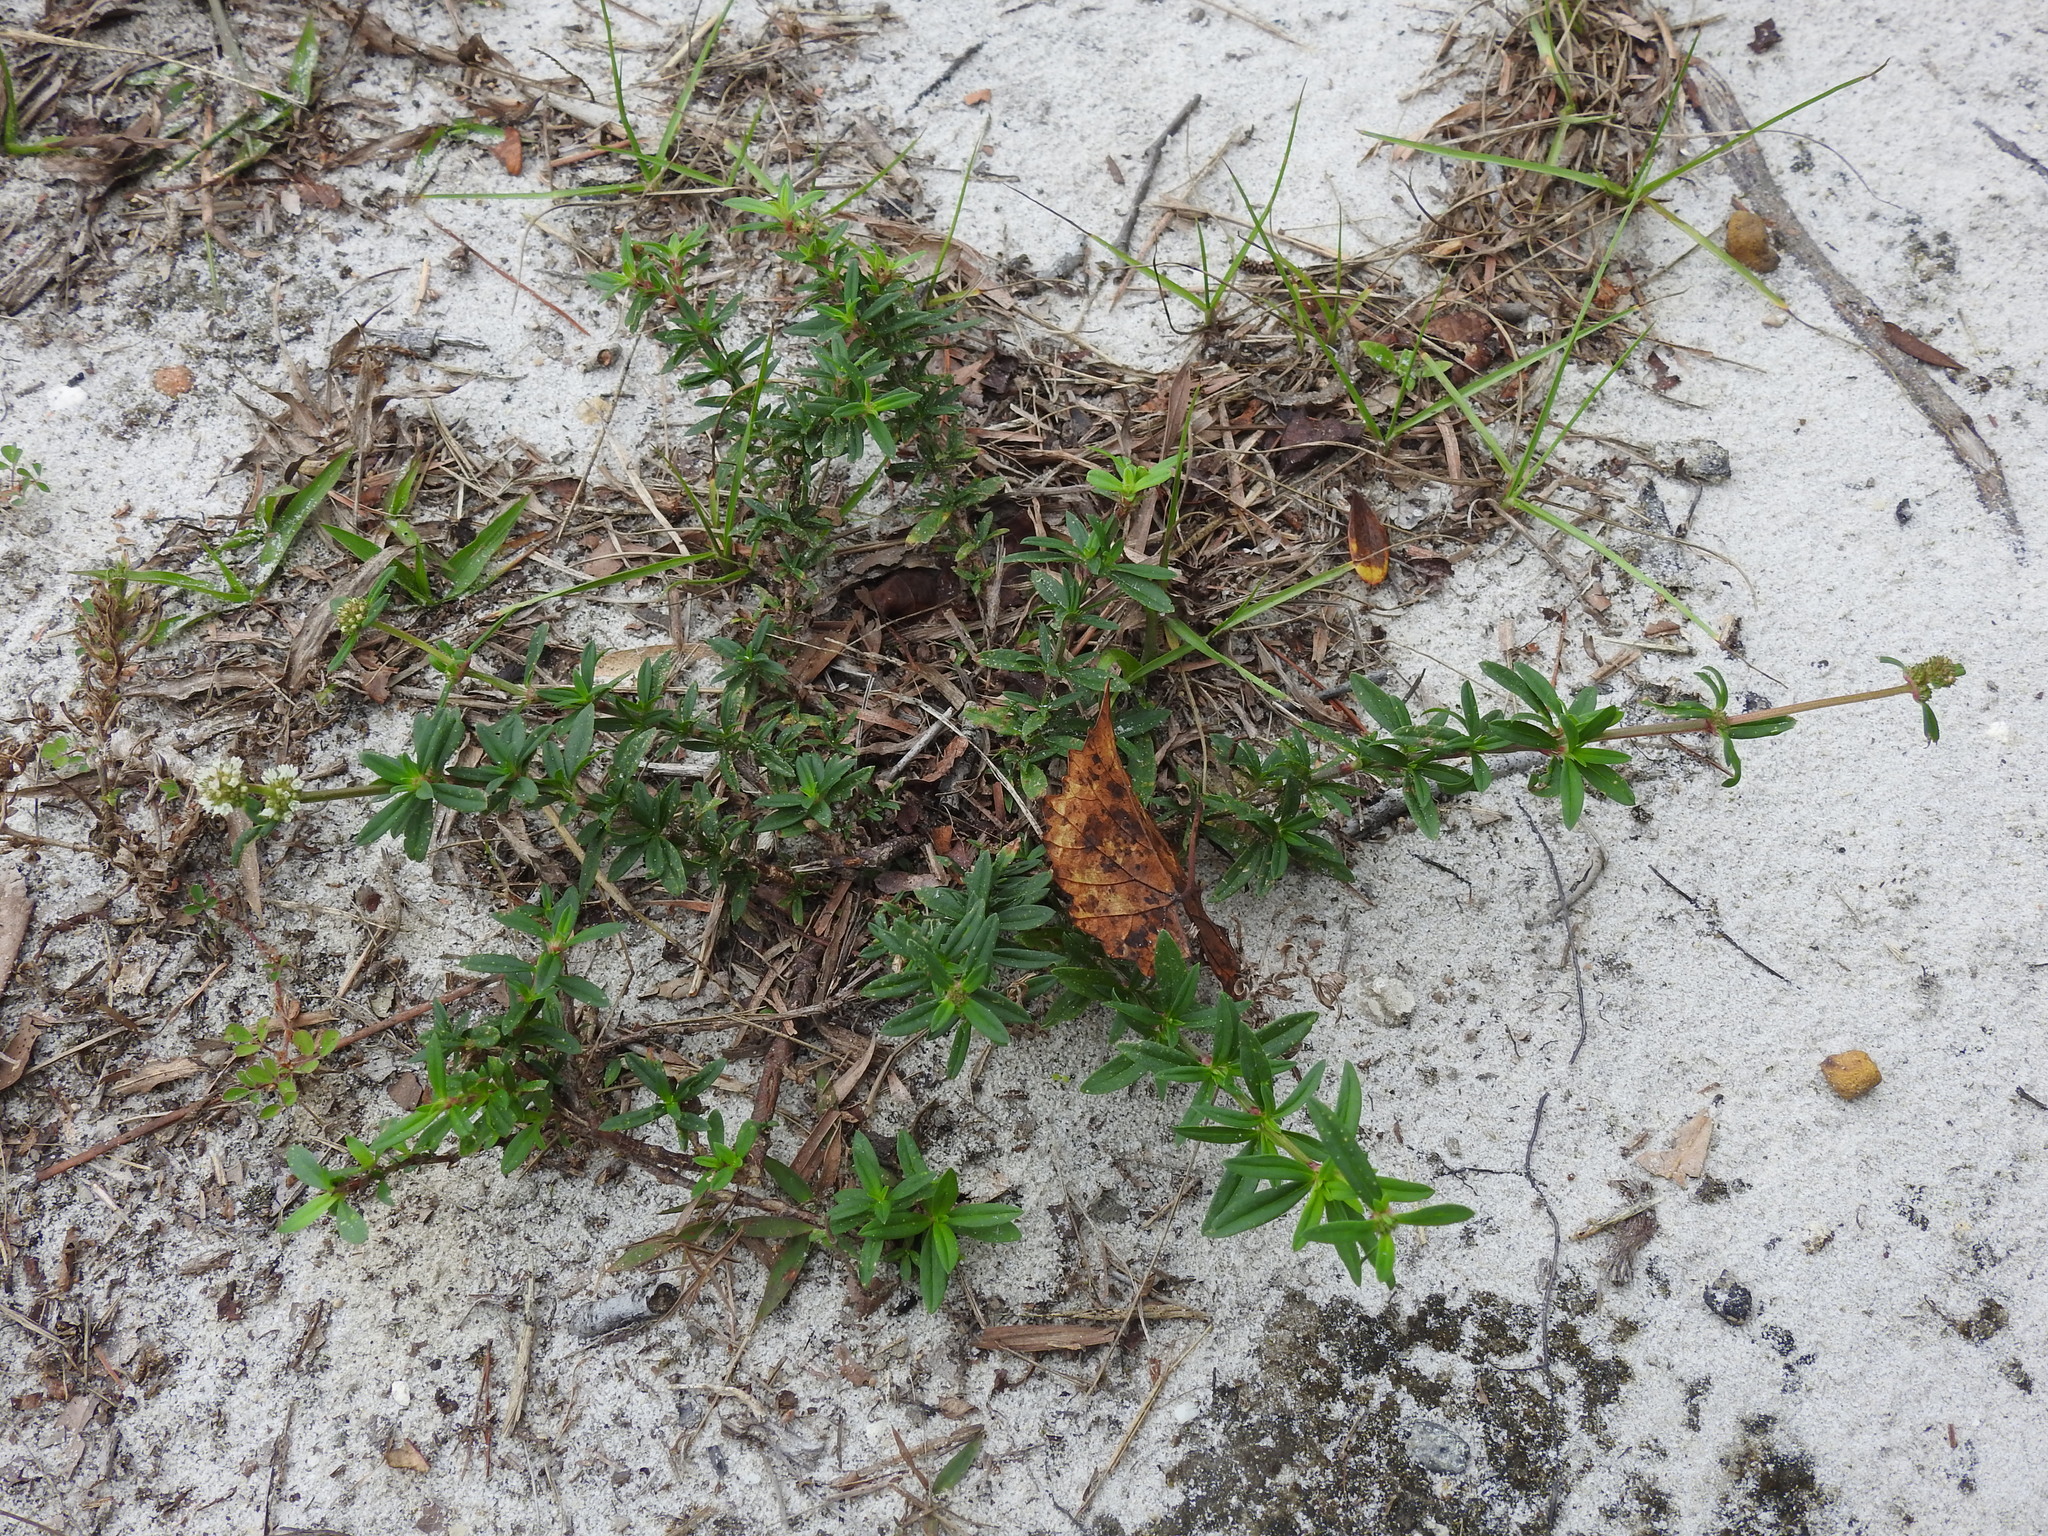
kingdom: Plantae
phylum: Tracheophyta
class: Magnoliopsida
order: Gentianales
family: Rubiaceae
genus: Spermacoce
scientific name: Spermacoce verticillata
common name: Shrubby false buttonweed
